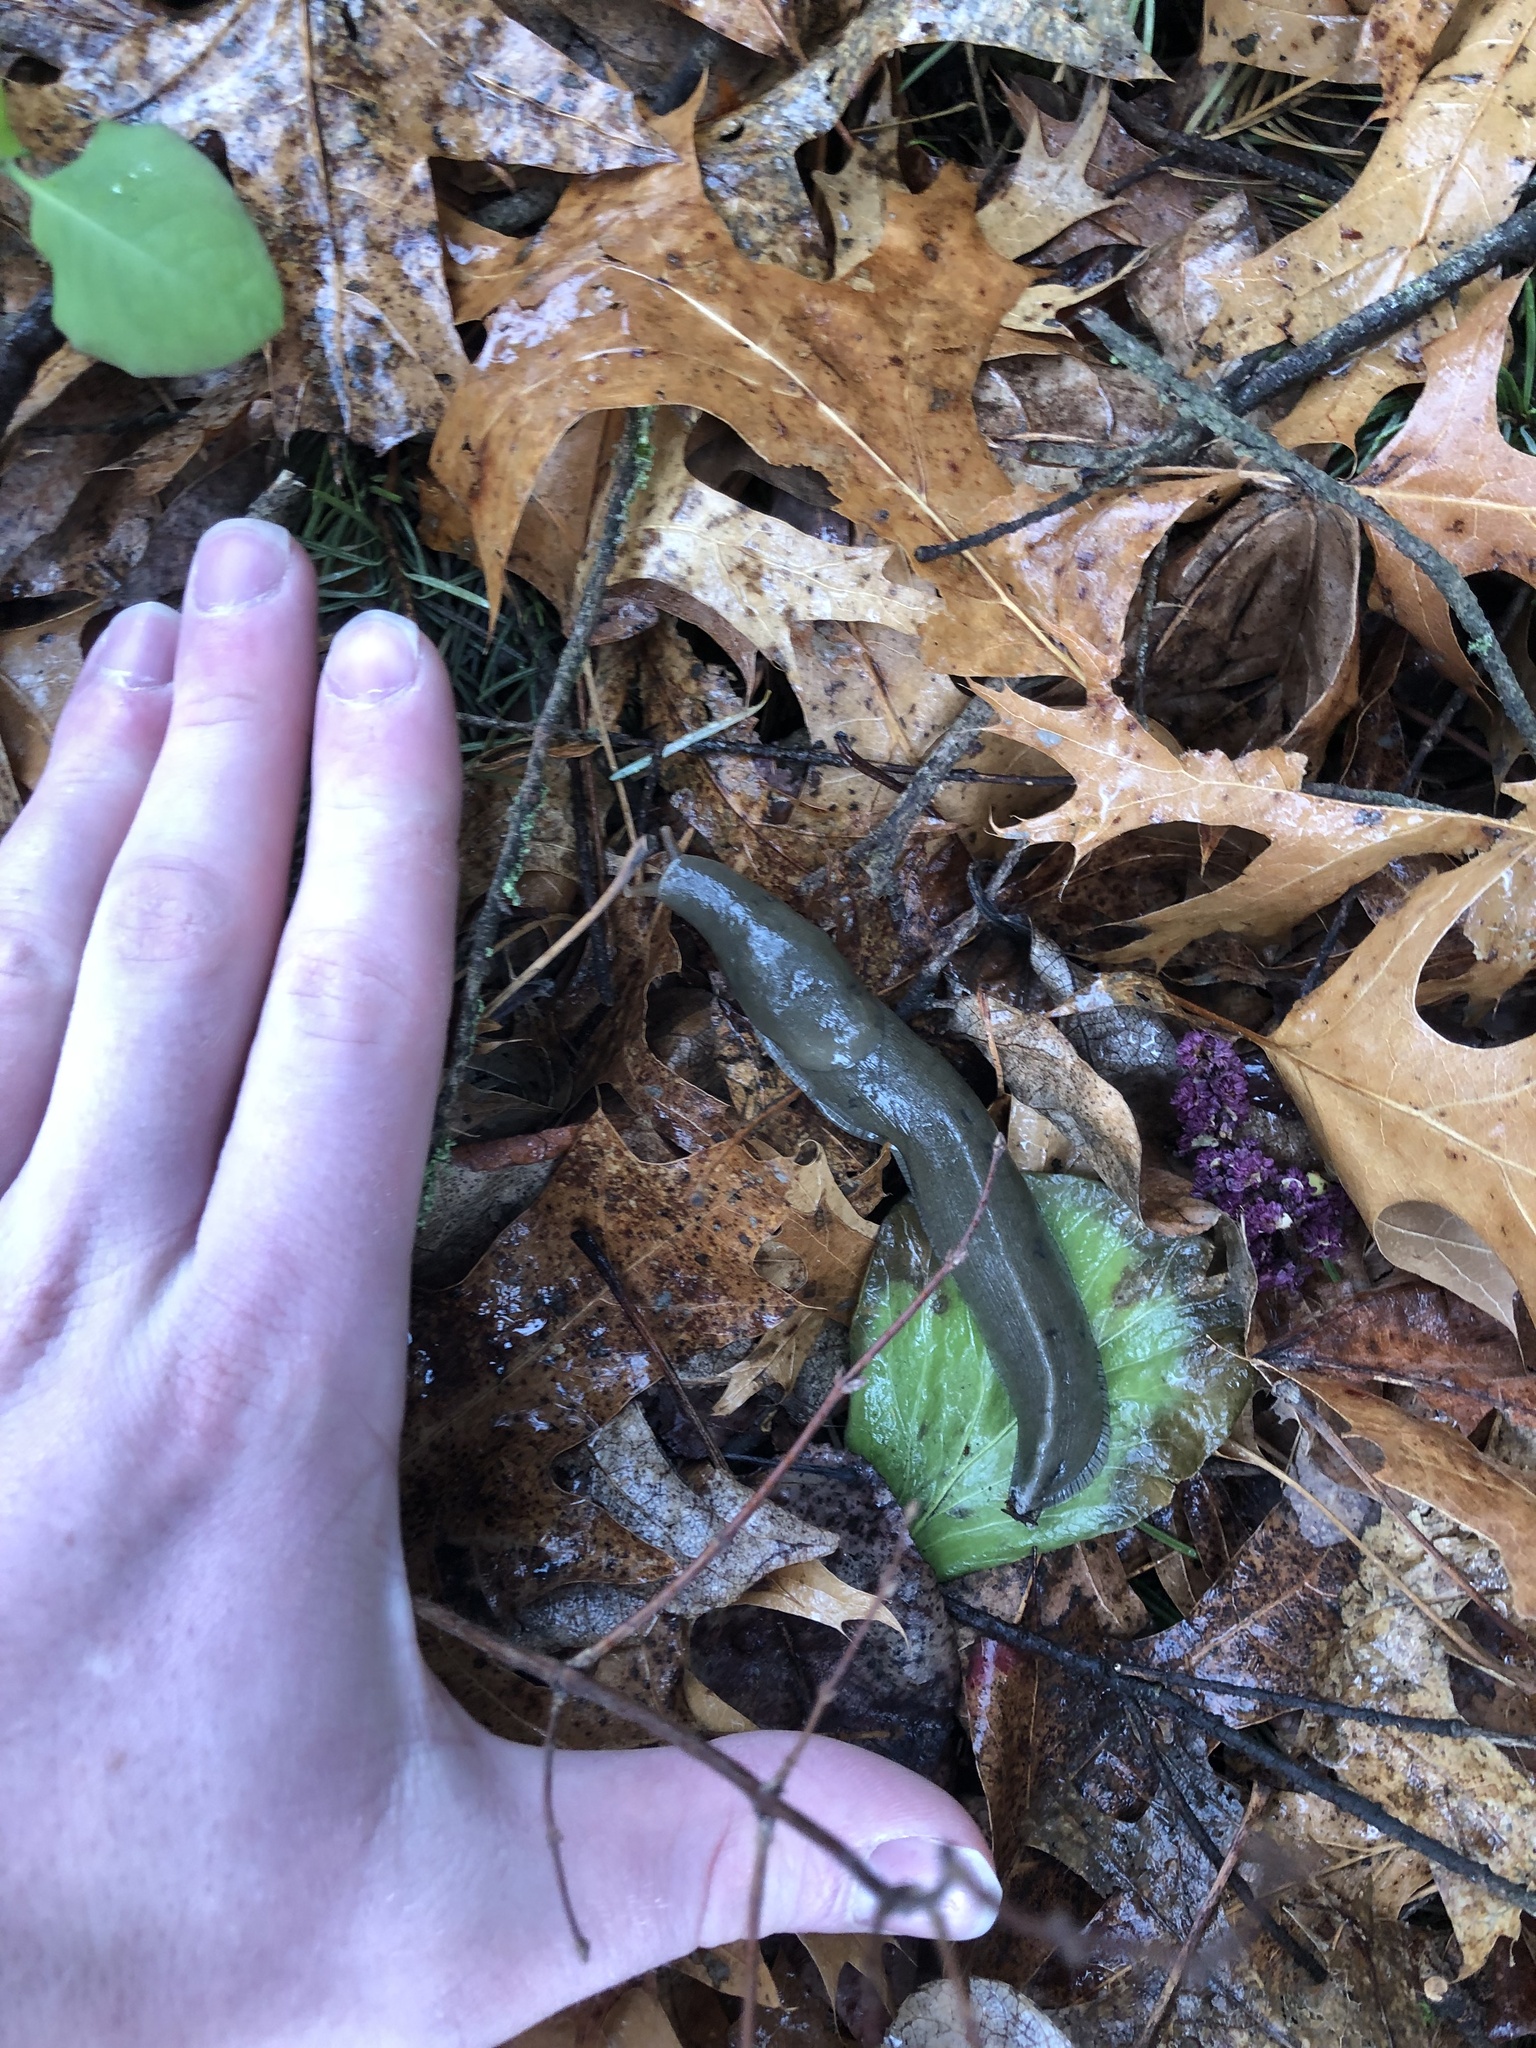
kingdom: Animalia
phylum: Mollusca
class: Gastropoda
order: Stylommatophora
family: Ariolimacidae
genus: Ariolimax
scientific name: Ariolimax columbianus
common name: Pacific banana slug
